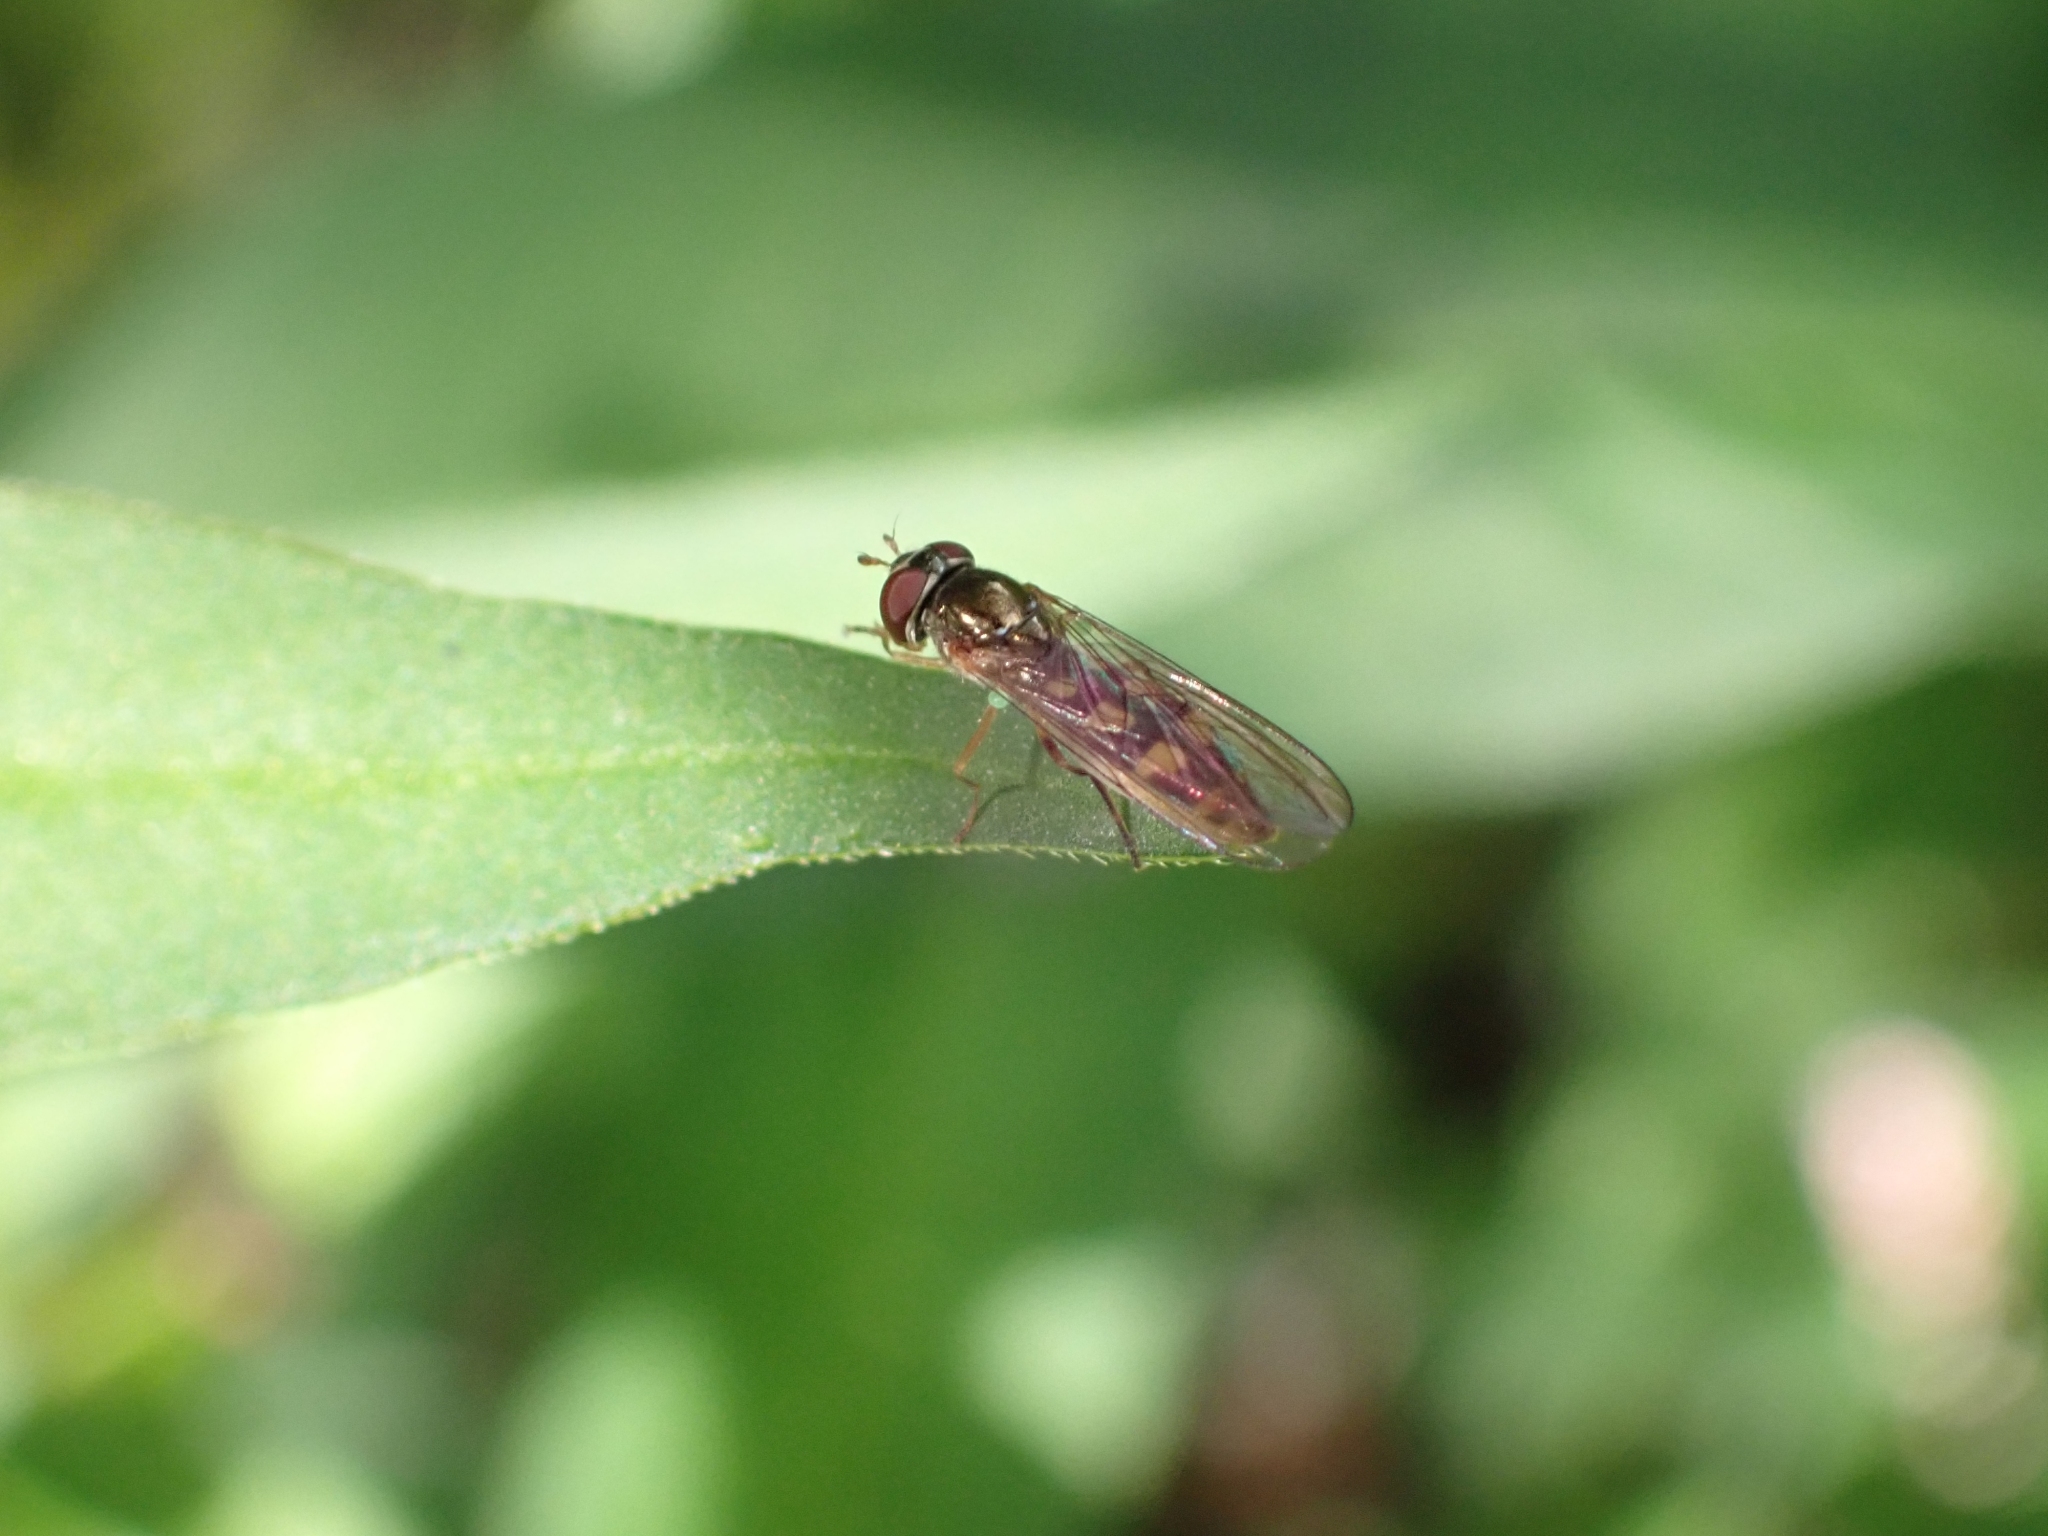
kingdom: Animalia
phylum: Arthropoda
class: Insecta
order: Diptera
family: Syrphidae
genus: Melanostoma
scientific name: Melanostoma mellina
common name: Hover fly
